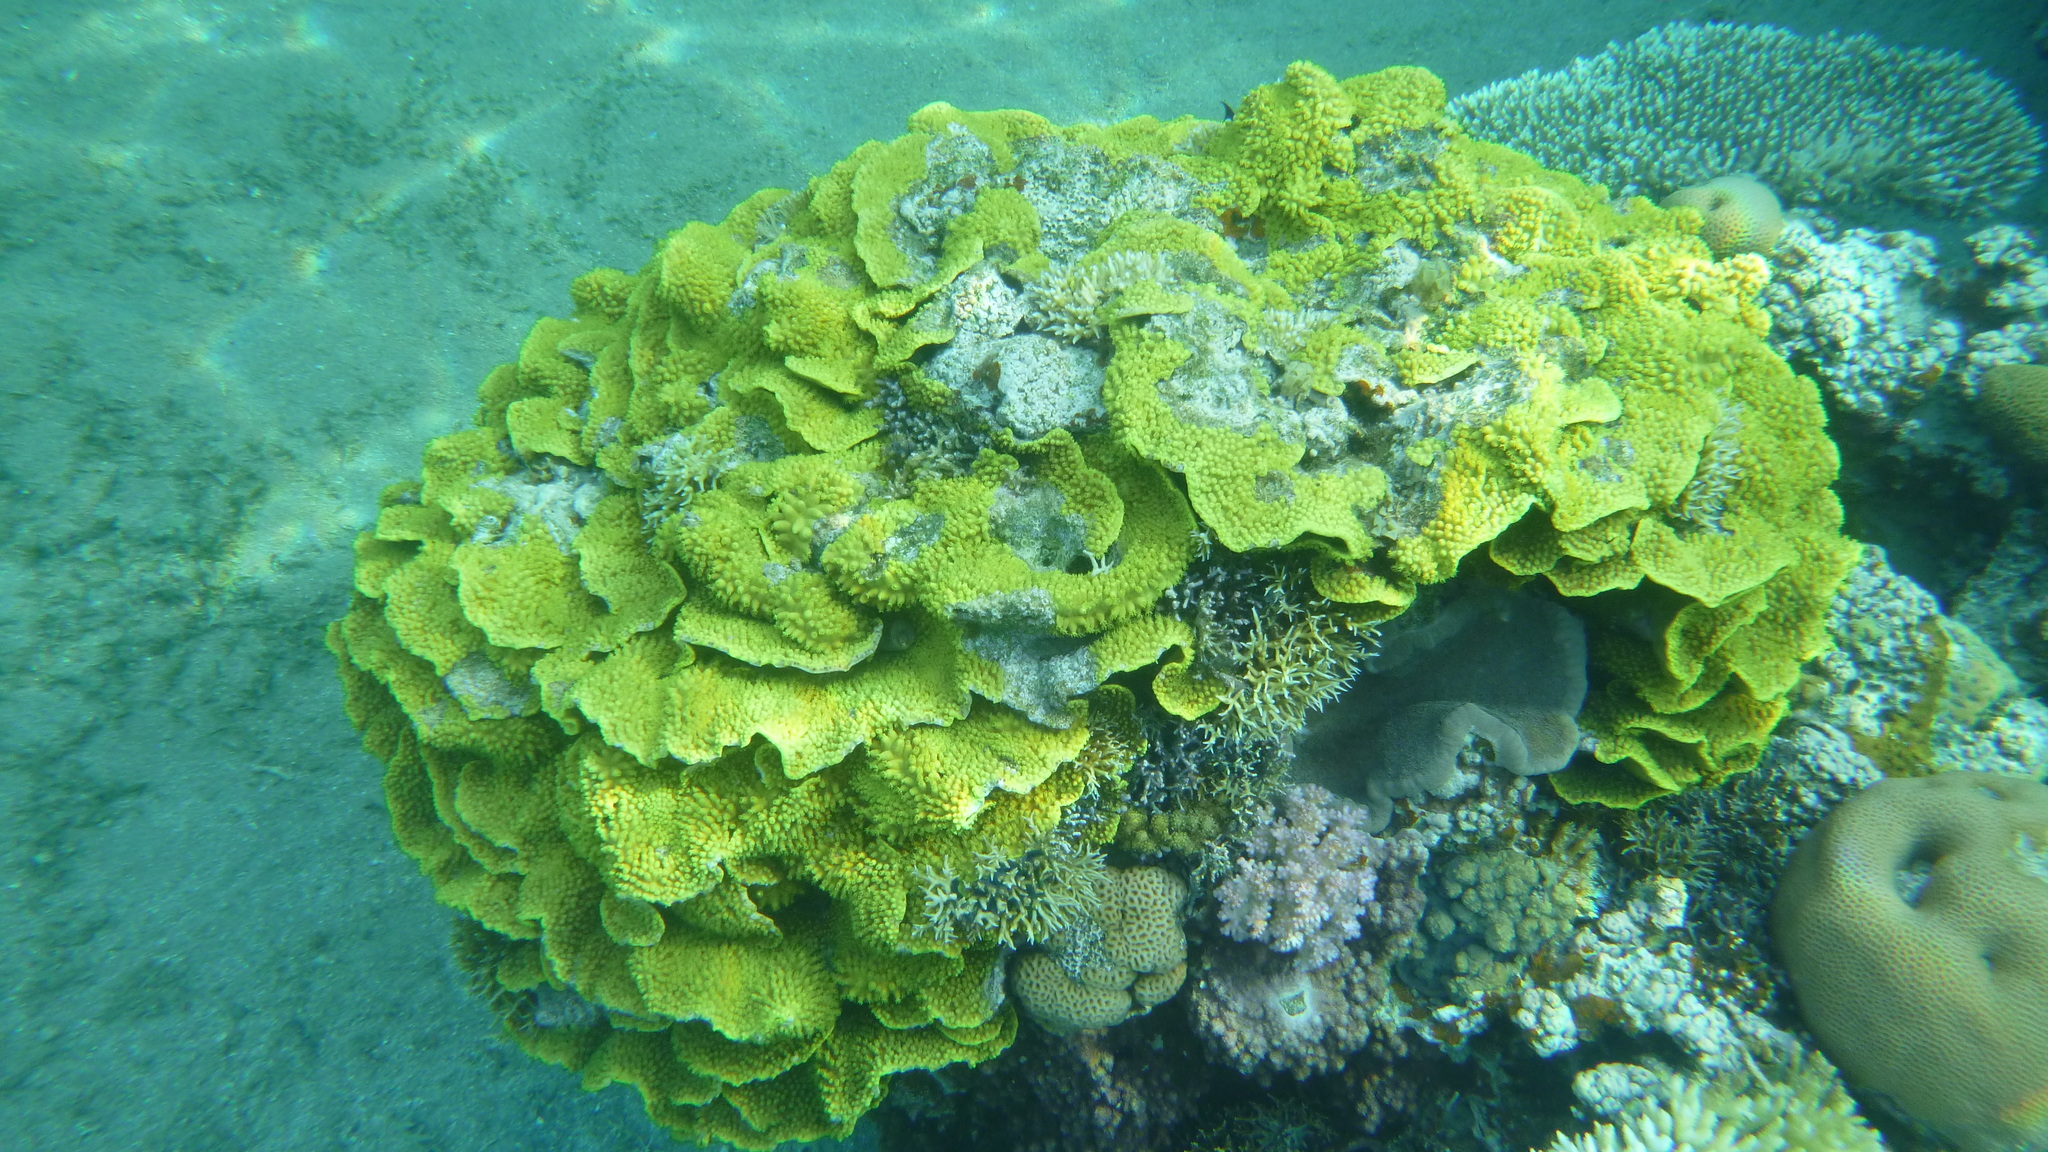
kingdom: Animalia
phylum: Cnidaria
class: Anthozoa
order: Scleractinia
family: Dendrophylliidae
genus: Turbinaria
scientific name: Turbinaria reniformis
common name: Disc coral
